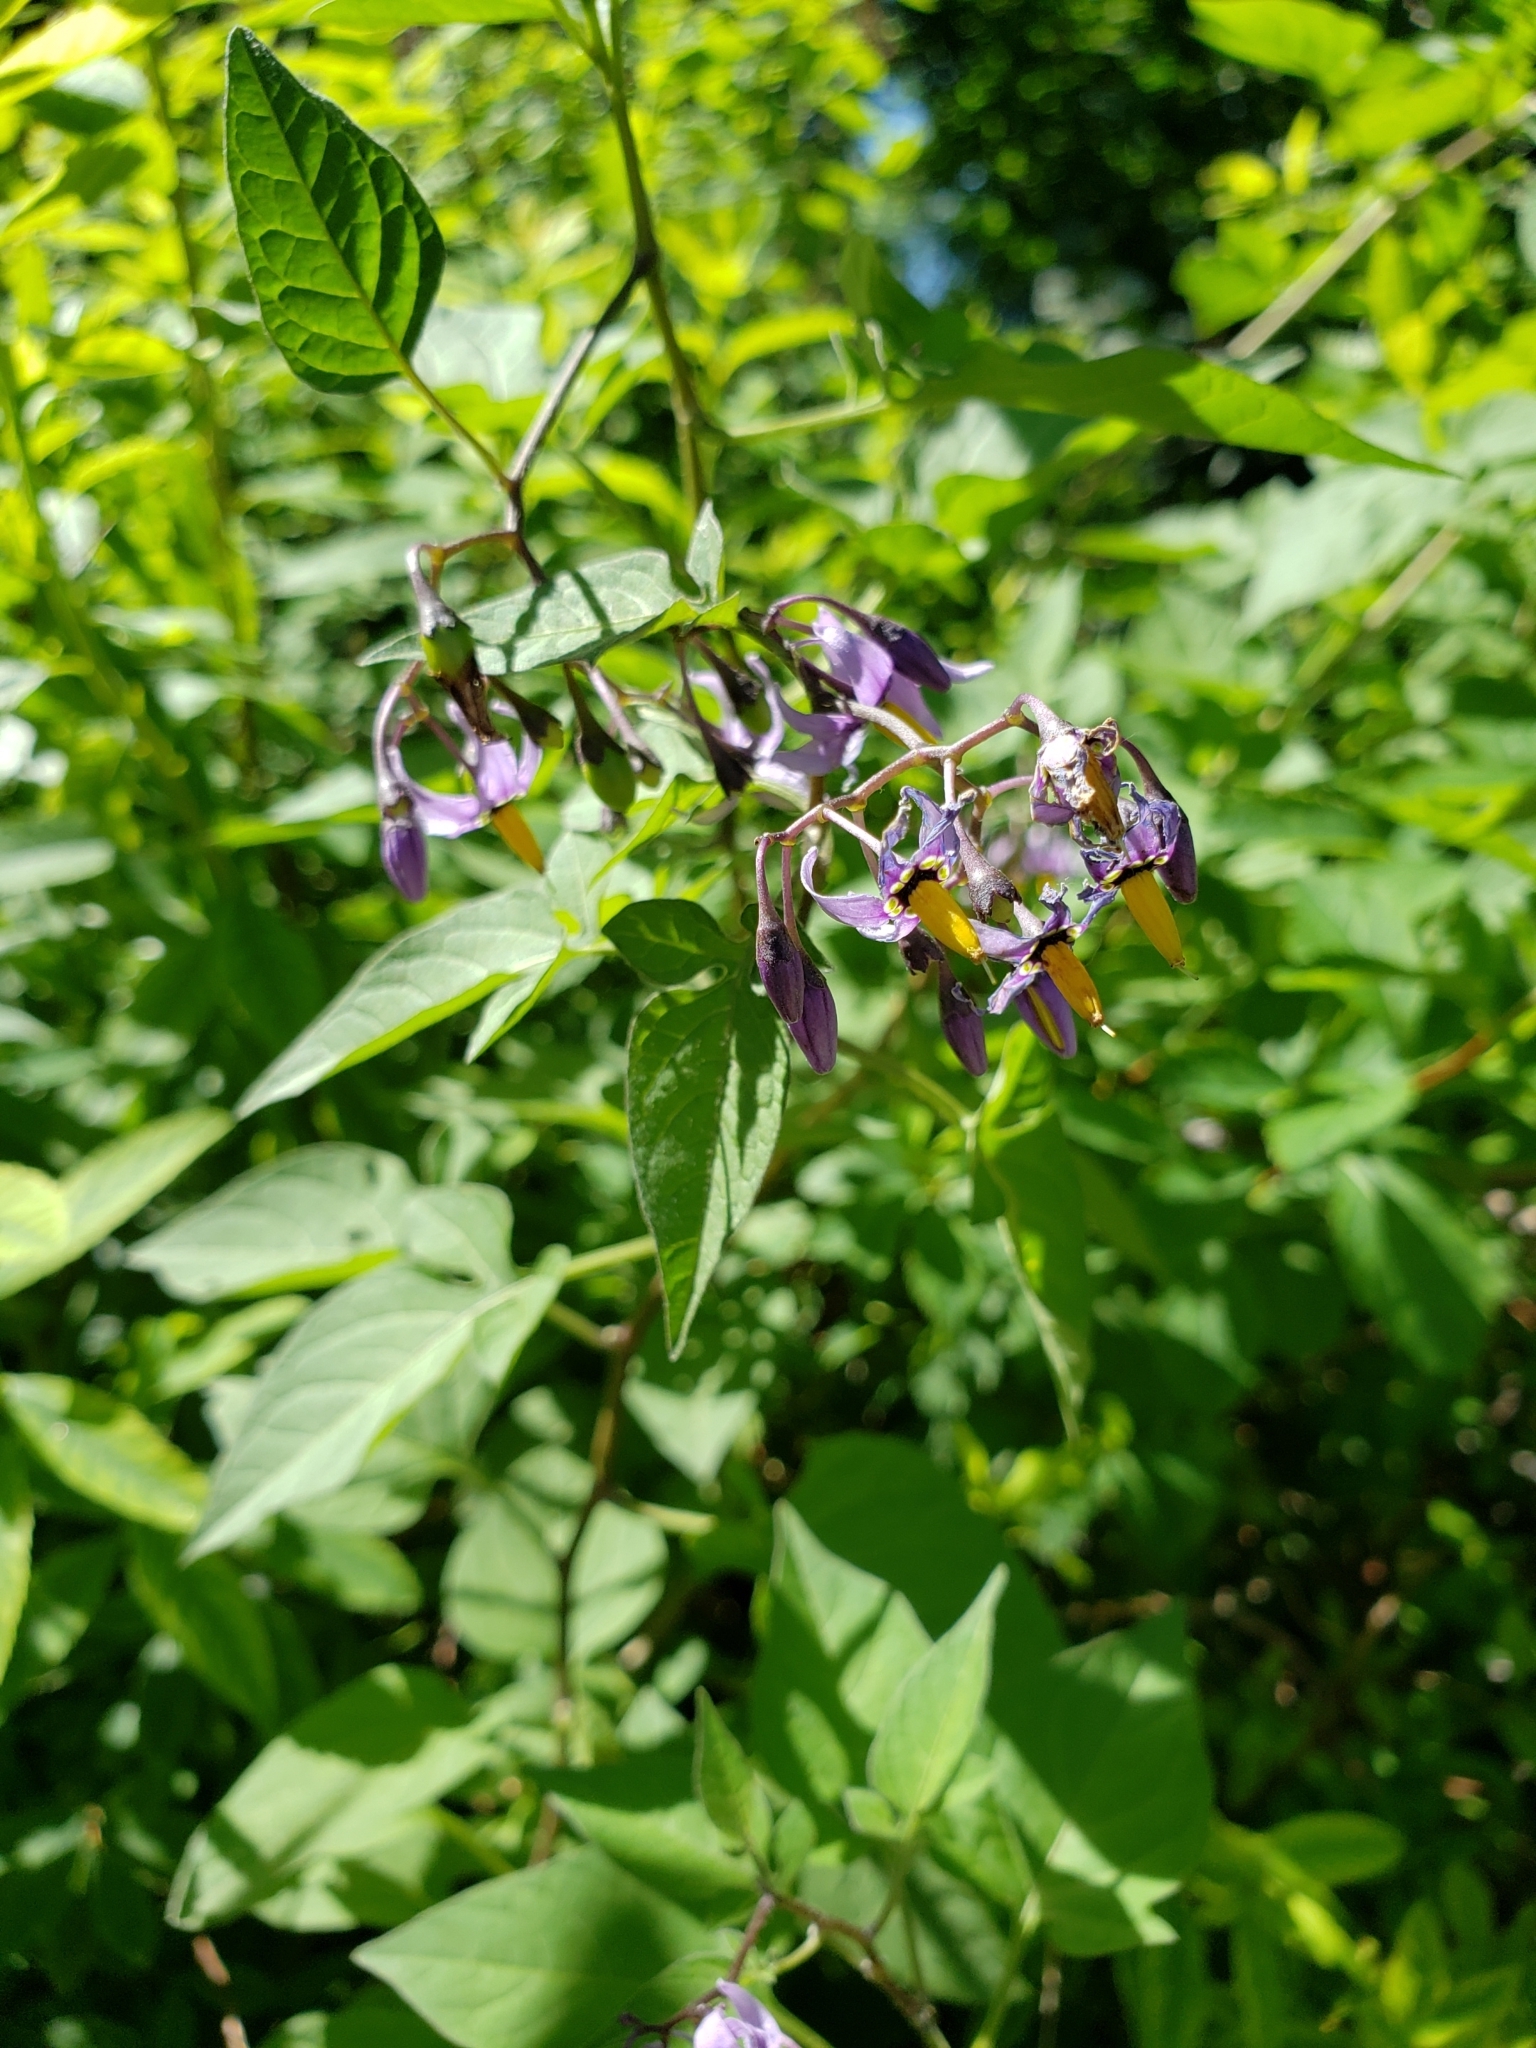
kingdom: Plantae
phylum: Tracheophyta
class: Magnoliopsida
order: Solanales
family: Solanaceae
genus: Solanum
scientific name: Solanum dulcamara
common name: Climbing nightshade
